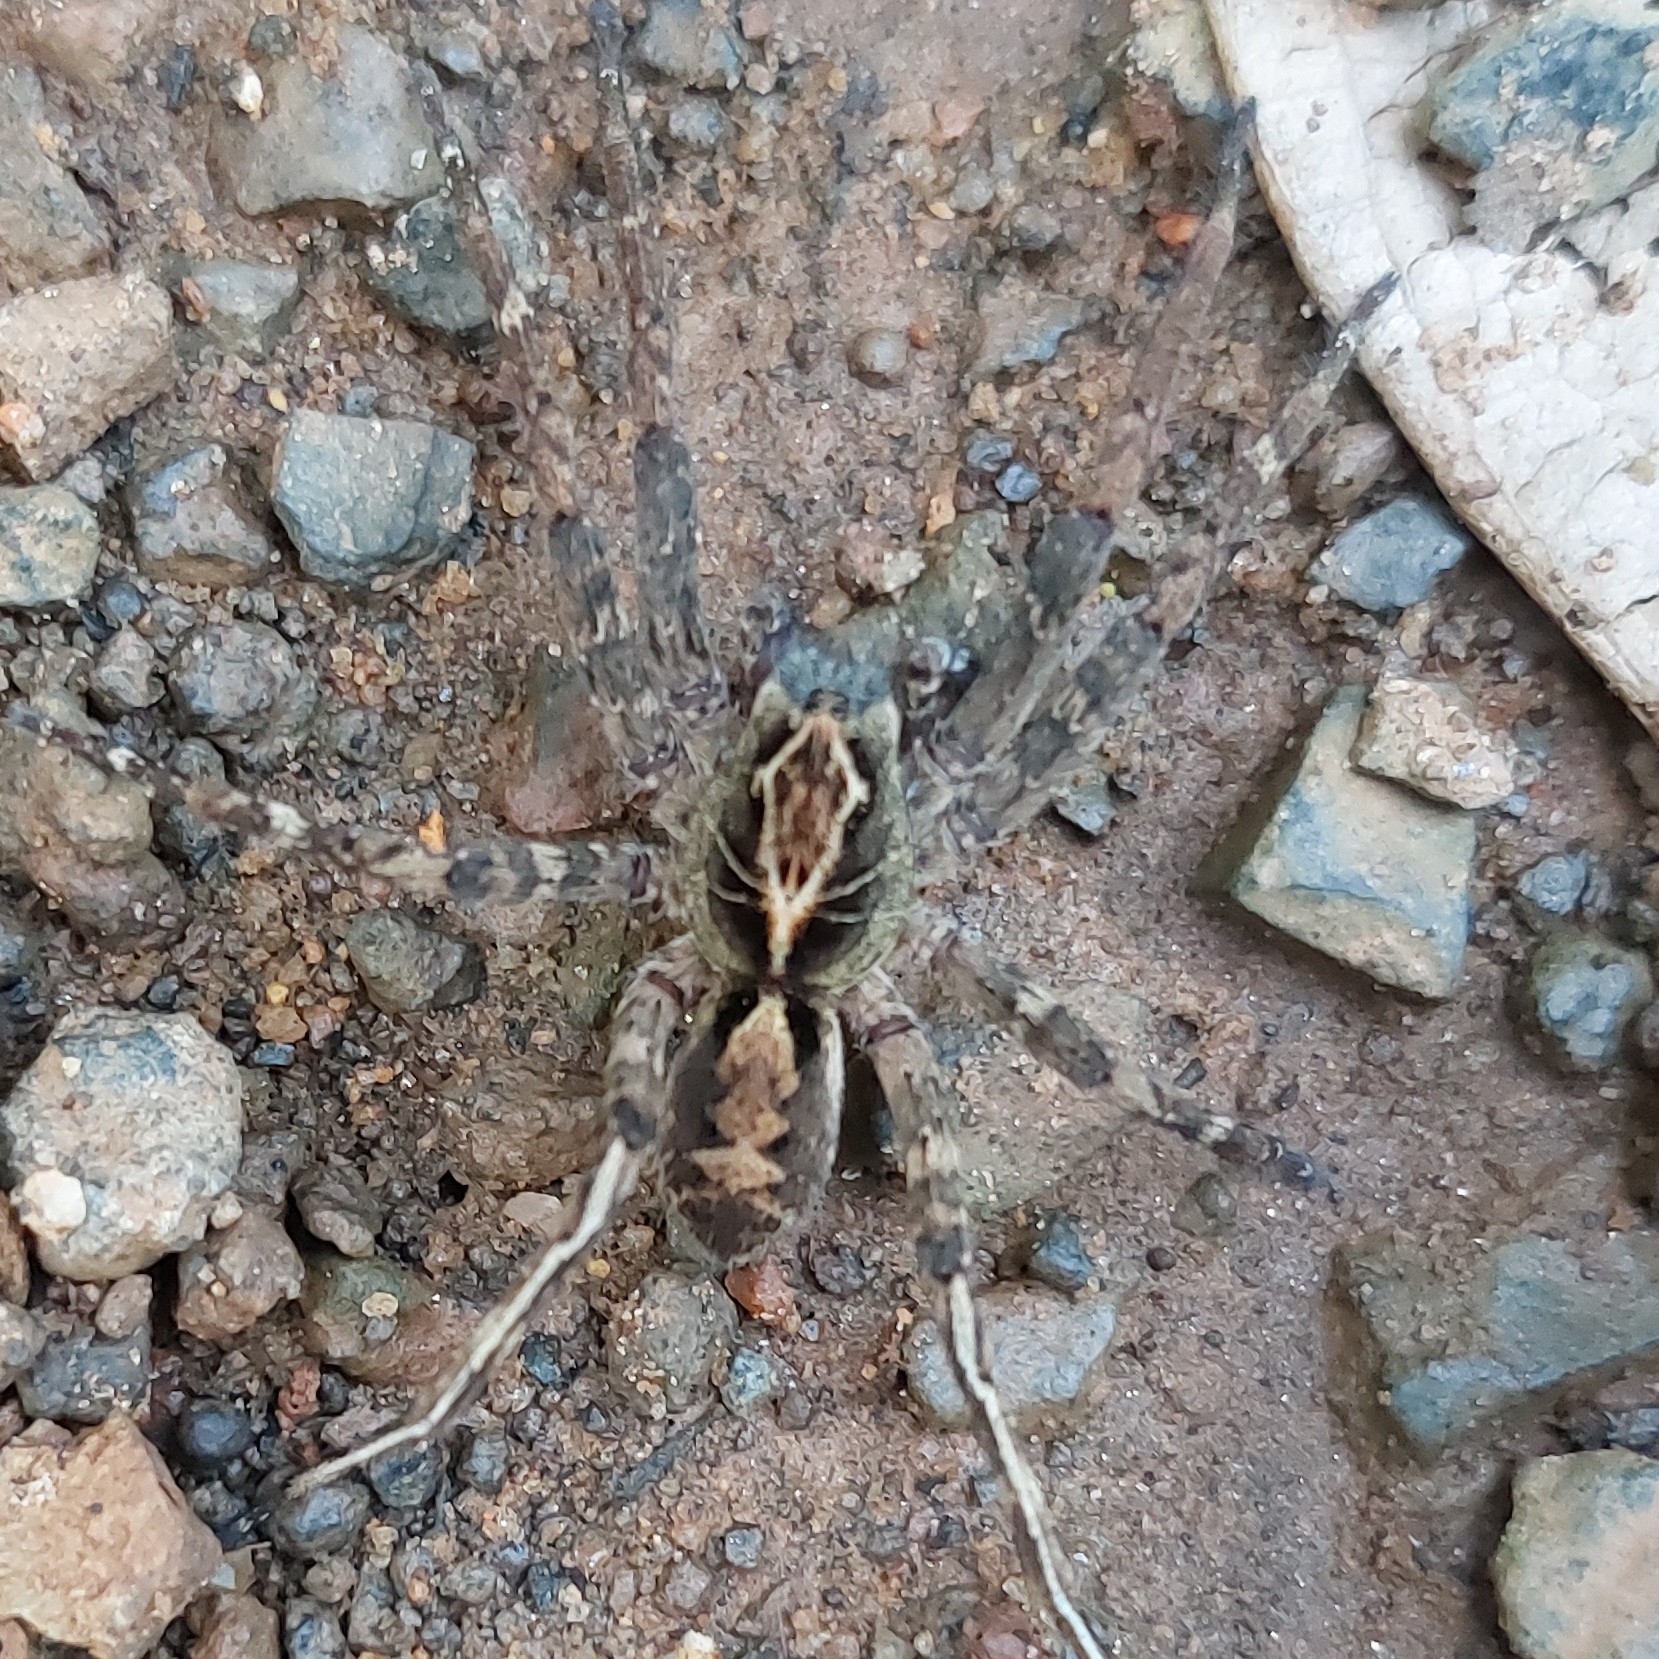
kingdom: Animalia
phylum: Arthropoda
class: Arachnida
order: Araneae
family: Ctenidae
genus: Ctenus
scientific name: Ctenus ornatus
